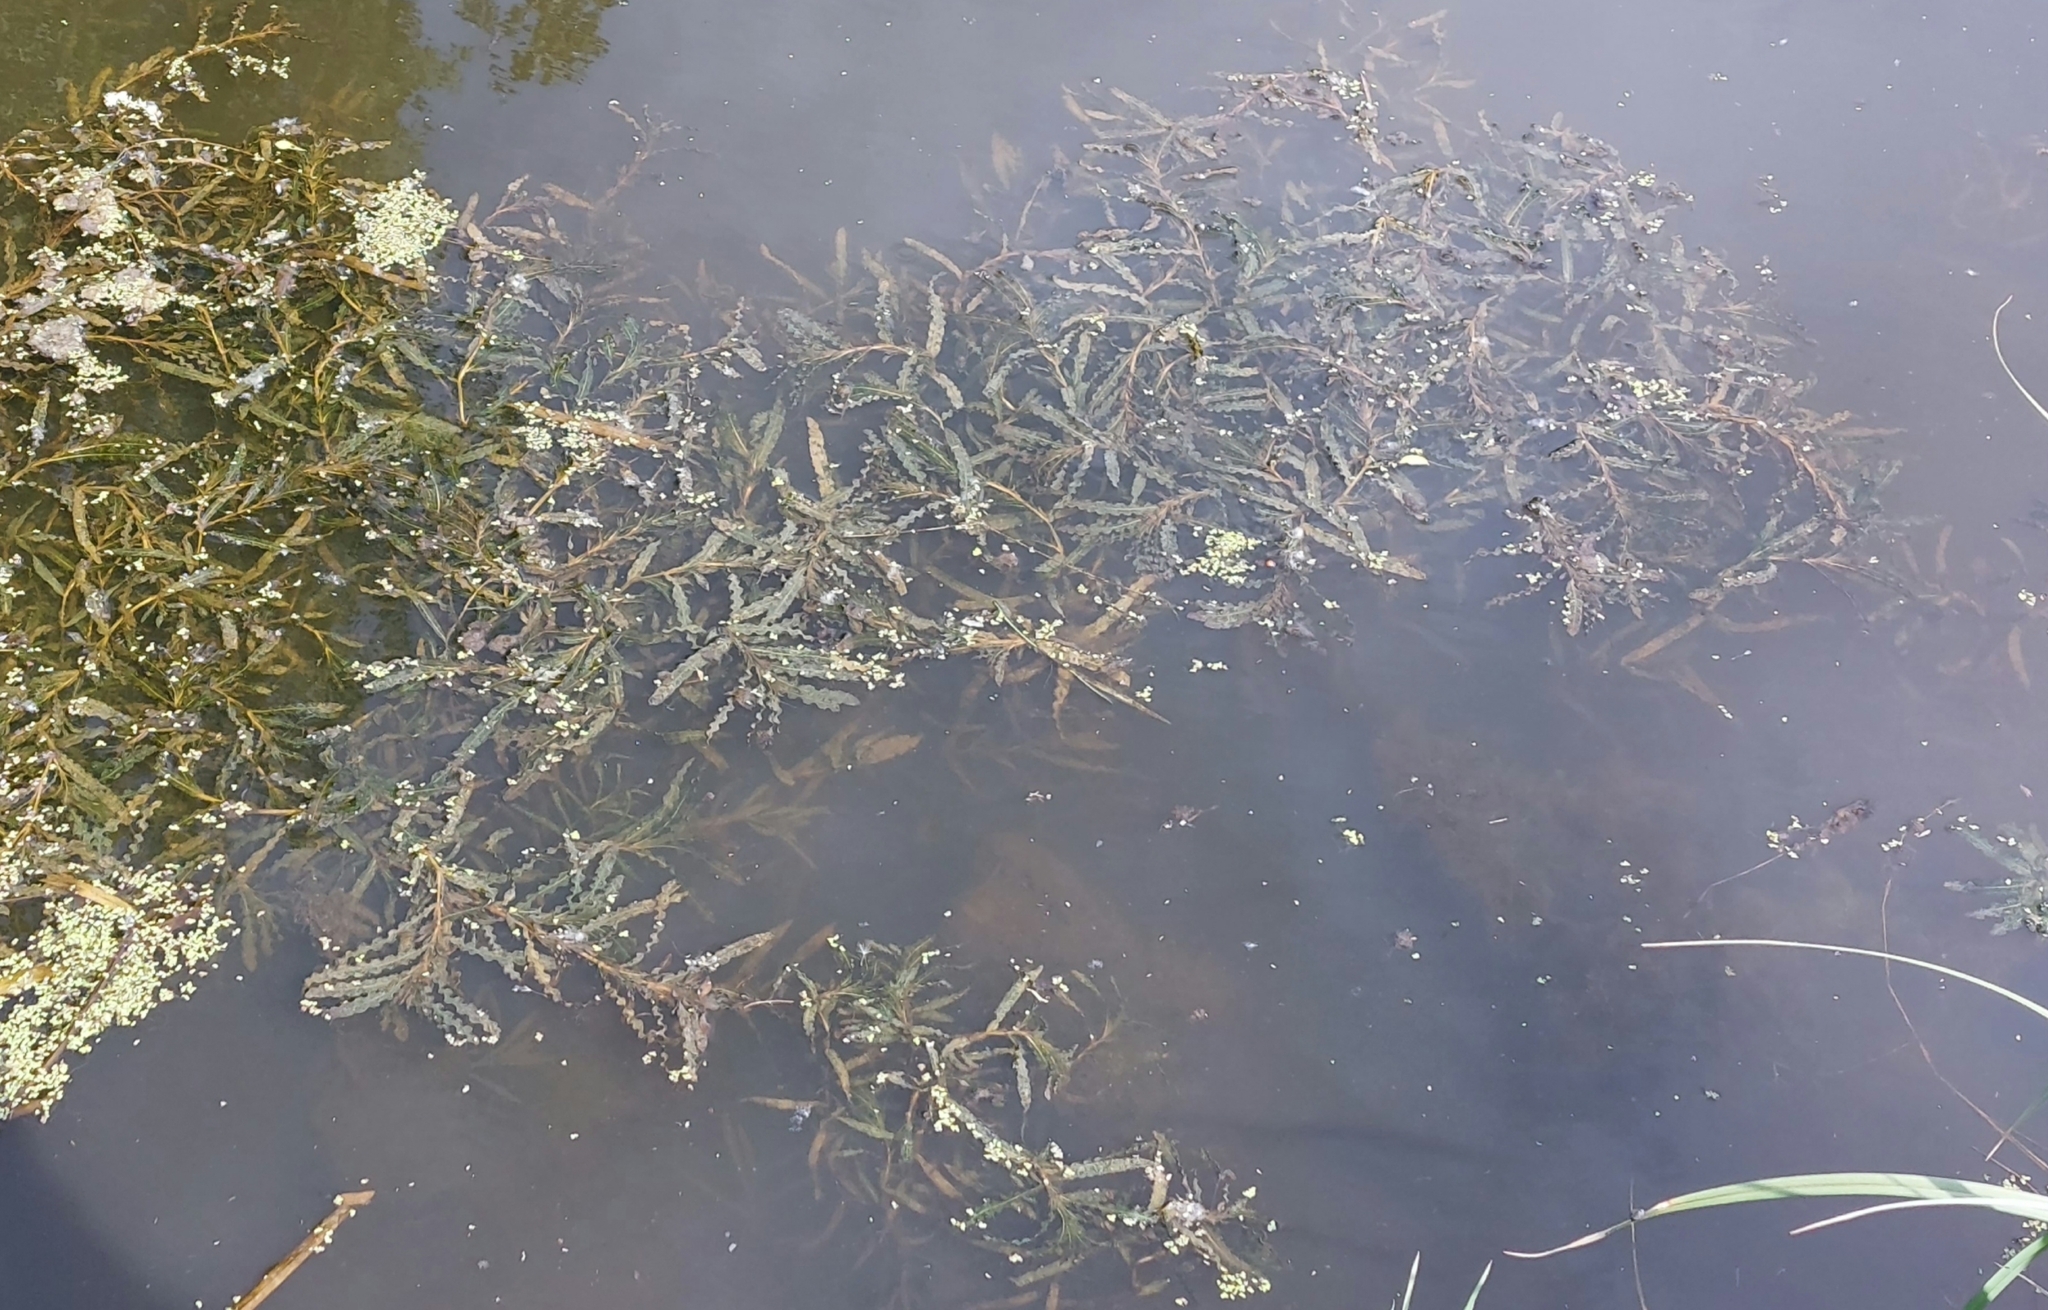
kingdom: Plantae
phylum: Tracheophyta
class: Liliopsida
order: Alismatales
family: Potamogetonaceae
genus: Potamogeton
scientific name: Potamogeton crispus
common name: Curled pondweed
